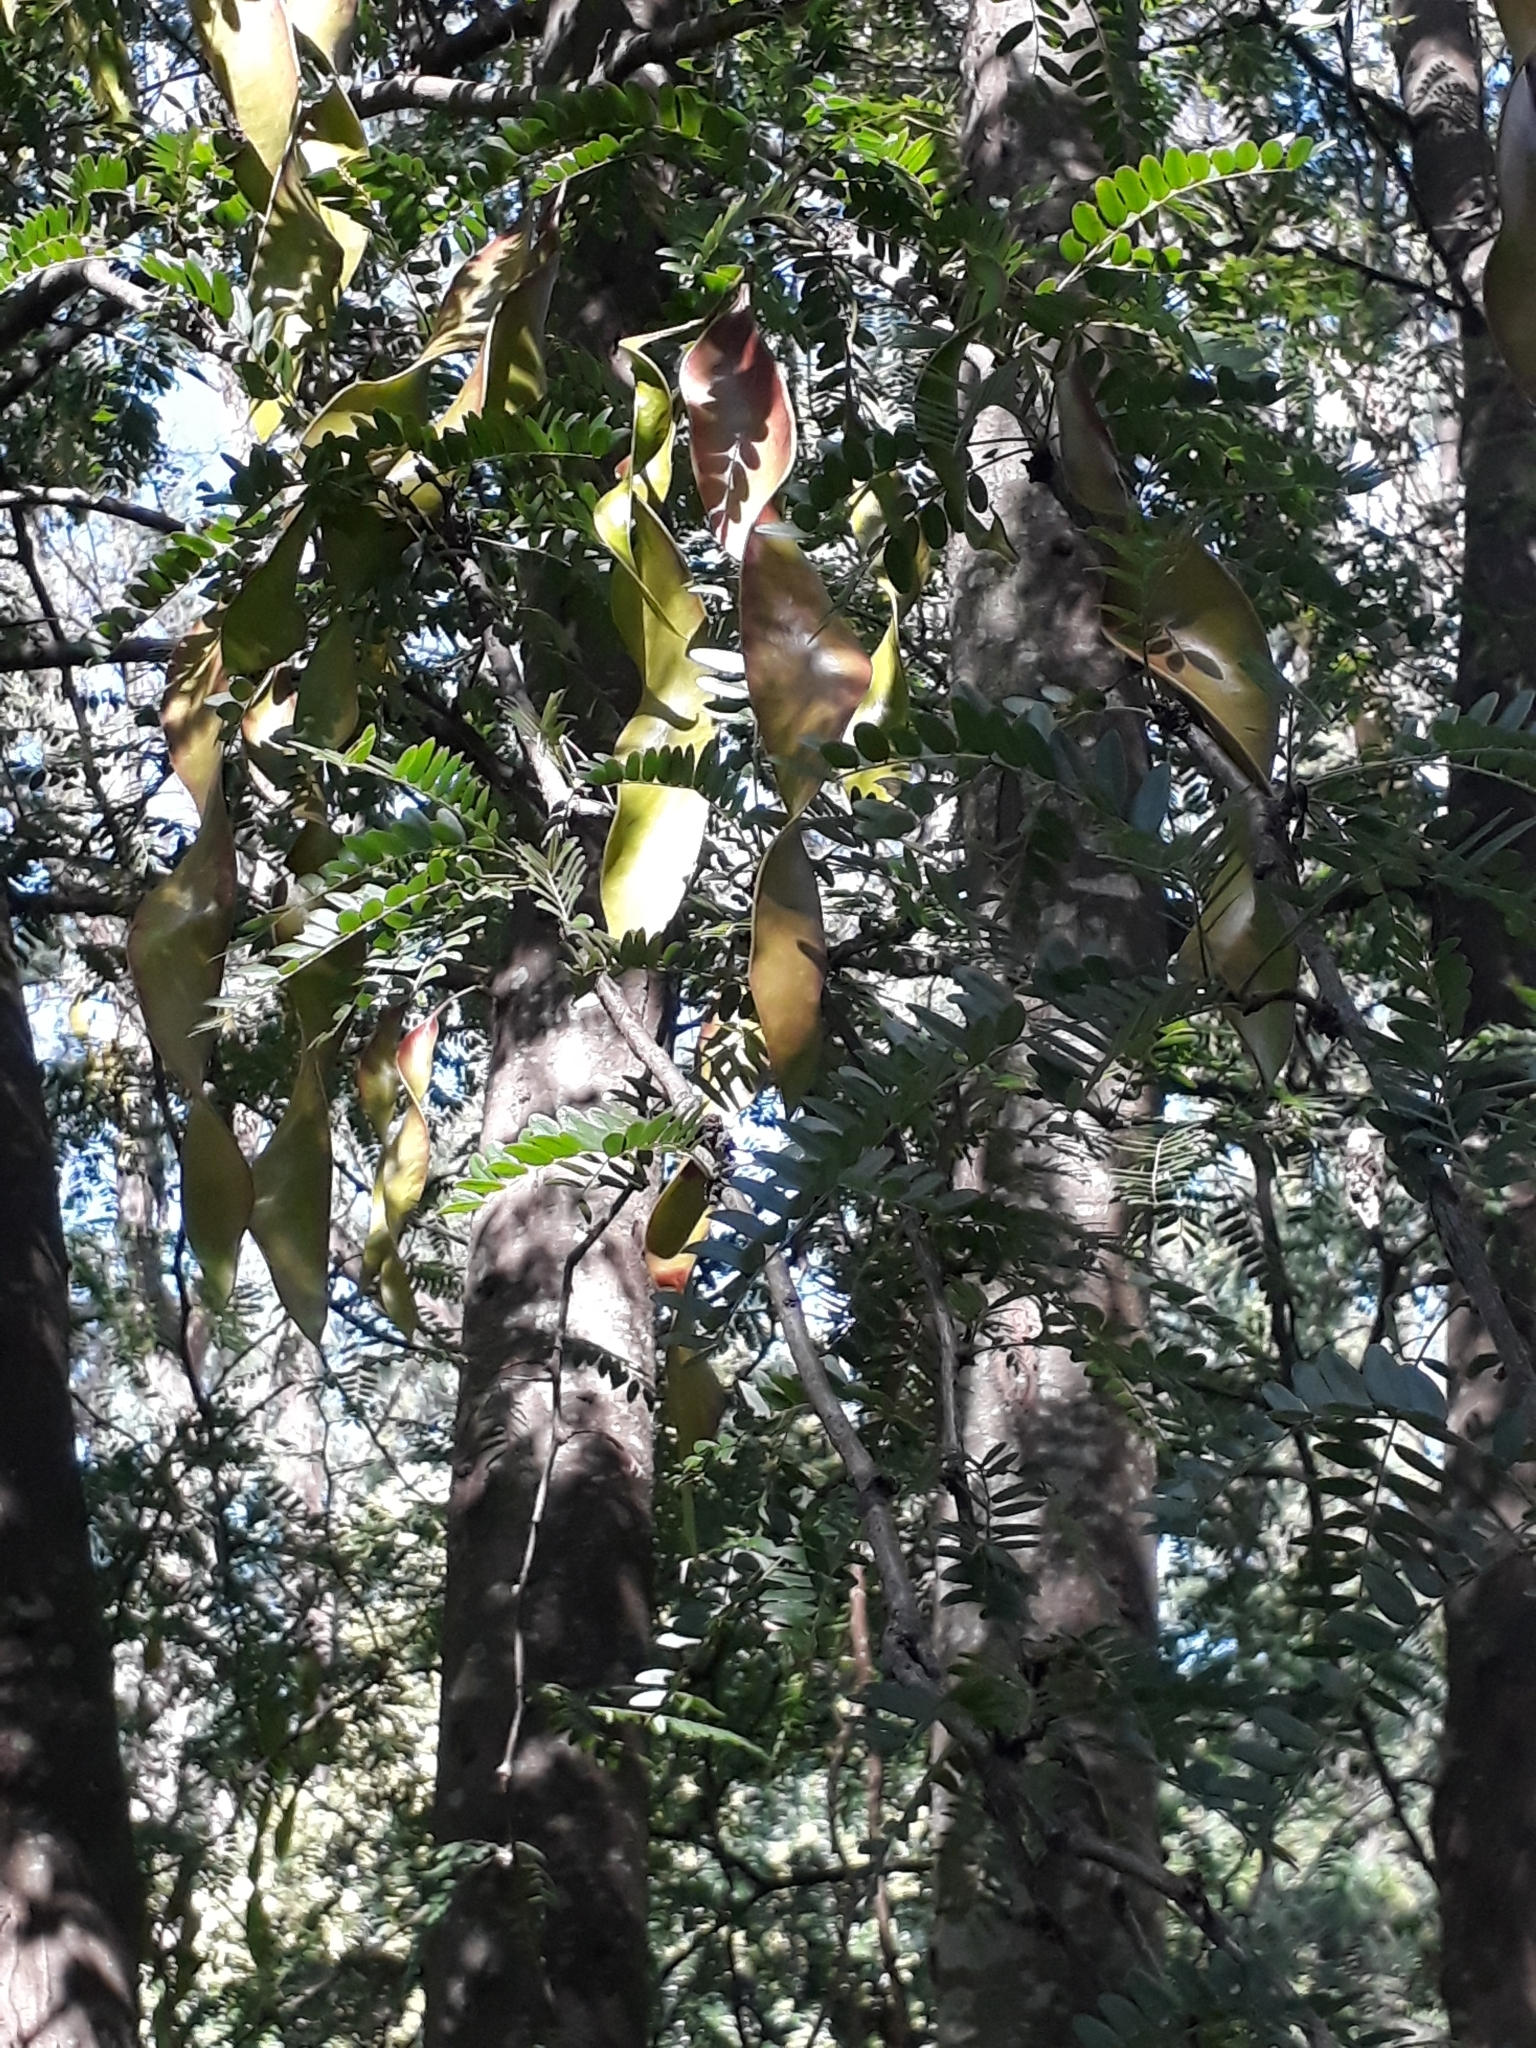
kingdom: Plantae
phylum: Tracheophyta
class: Magnoliopsida
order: Fabales
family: Fabaceae
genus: Gleditsia
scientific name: Gleditsia triacanthos
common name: Common honeylocust
